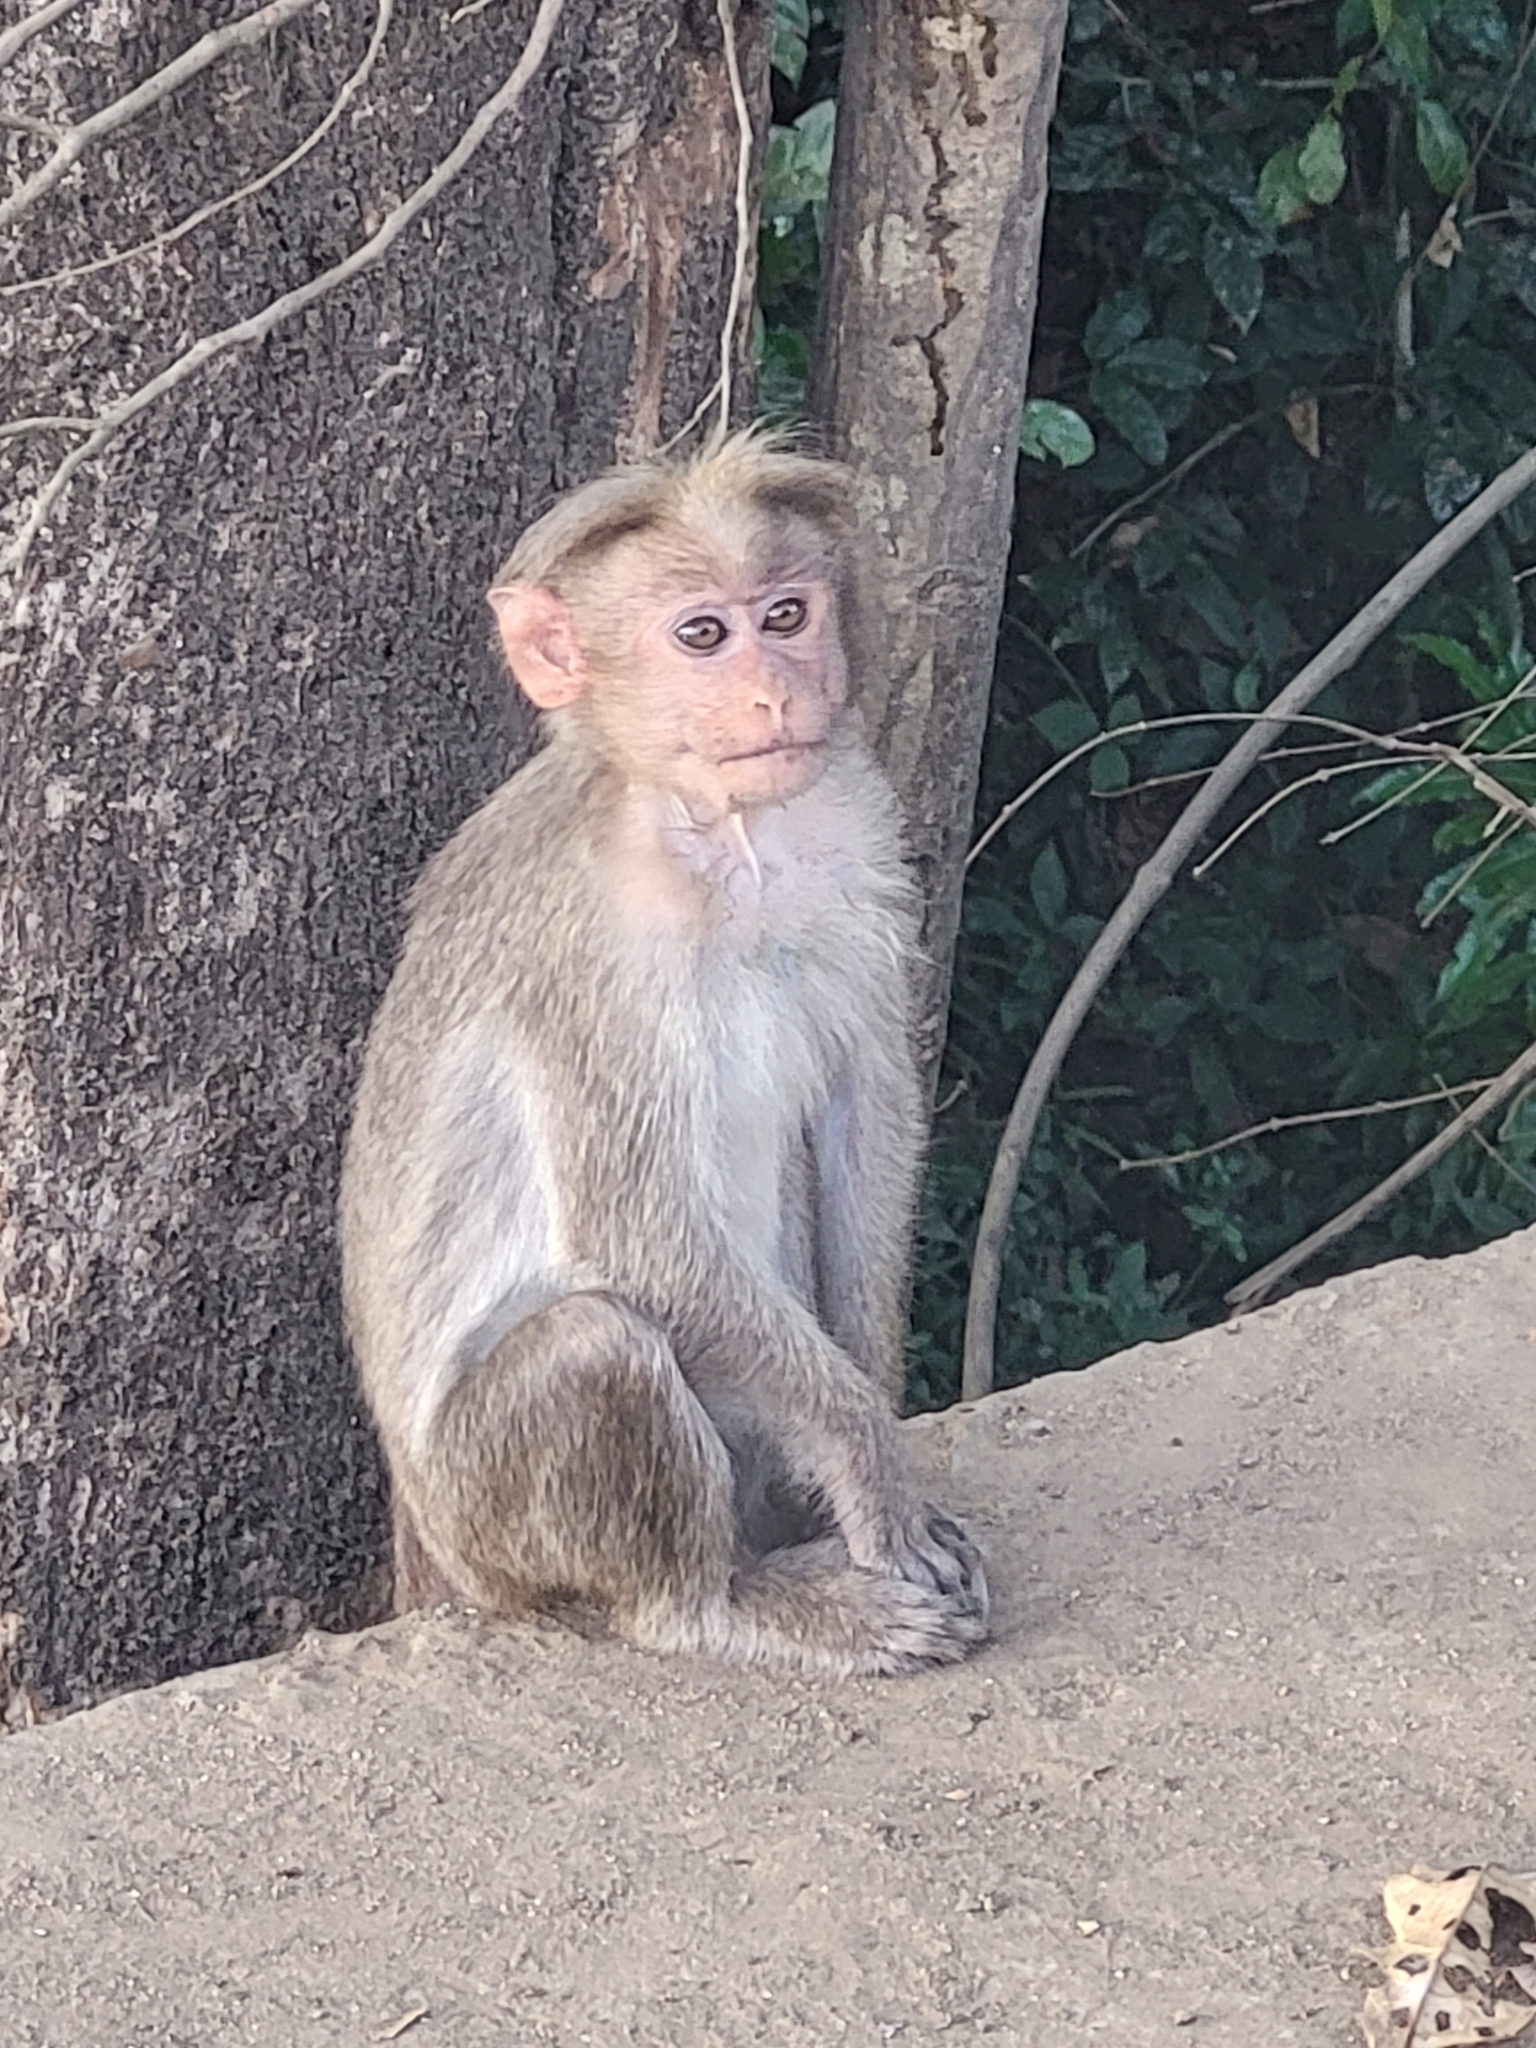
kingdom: Animalia
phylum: Chordata
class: Mammalia
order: Primates
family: Cercopithecidae
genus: Macaca
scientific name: Macaca radiata
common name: Bonnet macaque
